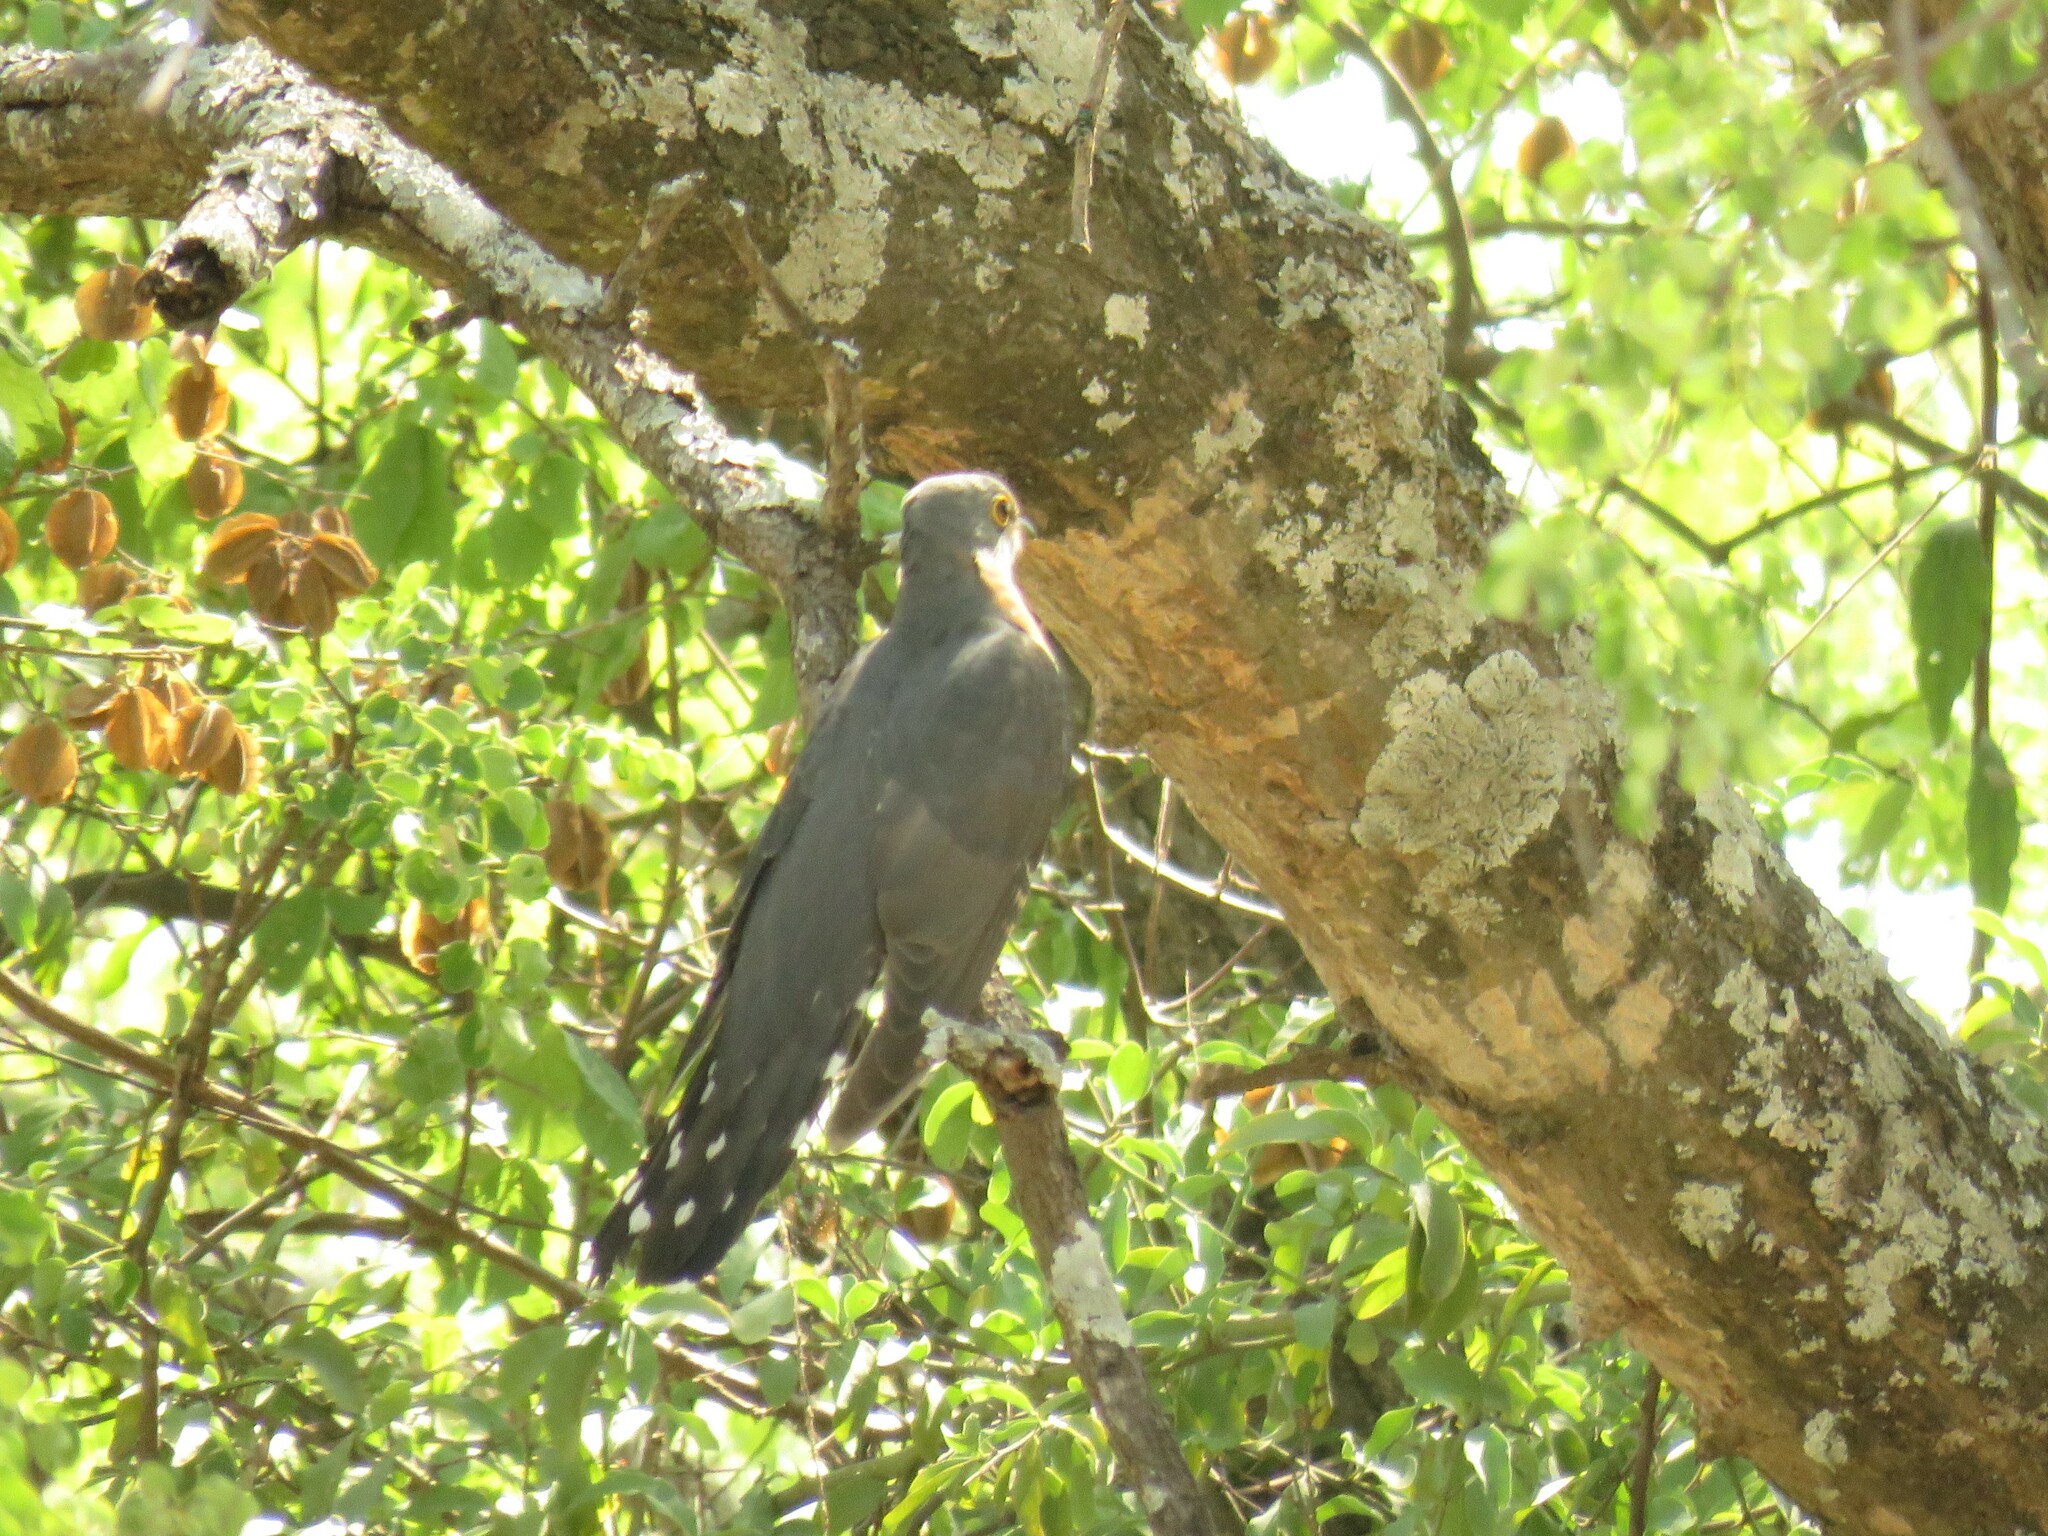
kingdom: Animalia
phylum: Chordata
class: Aves
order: Cuculiformes
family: Cuculidae
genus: Cuculus
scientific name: Cuculus solitarius
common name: Red-chested cuckoo
